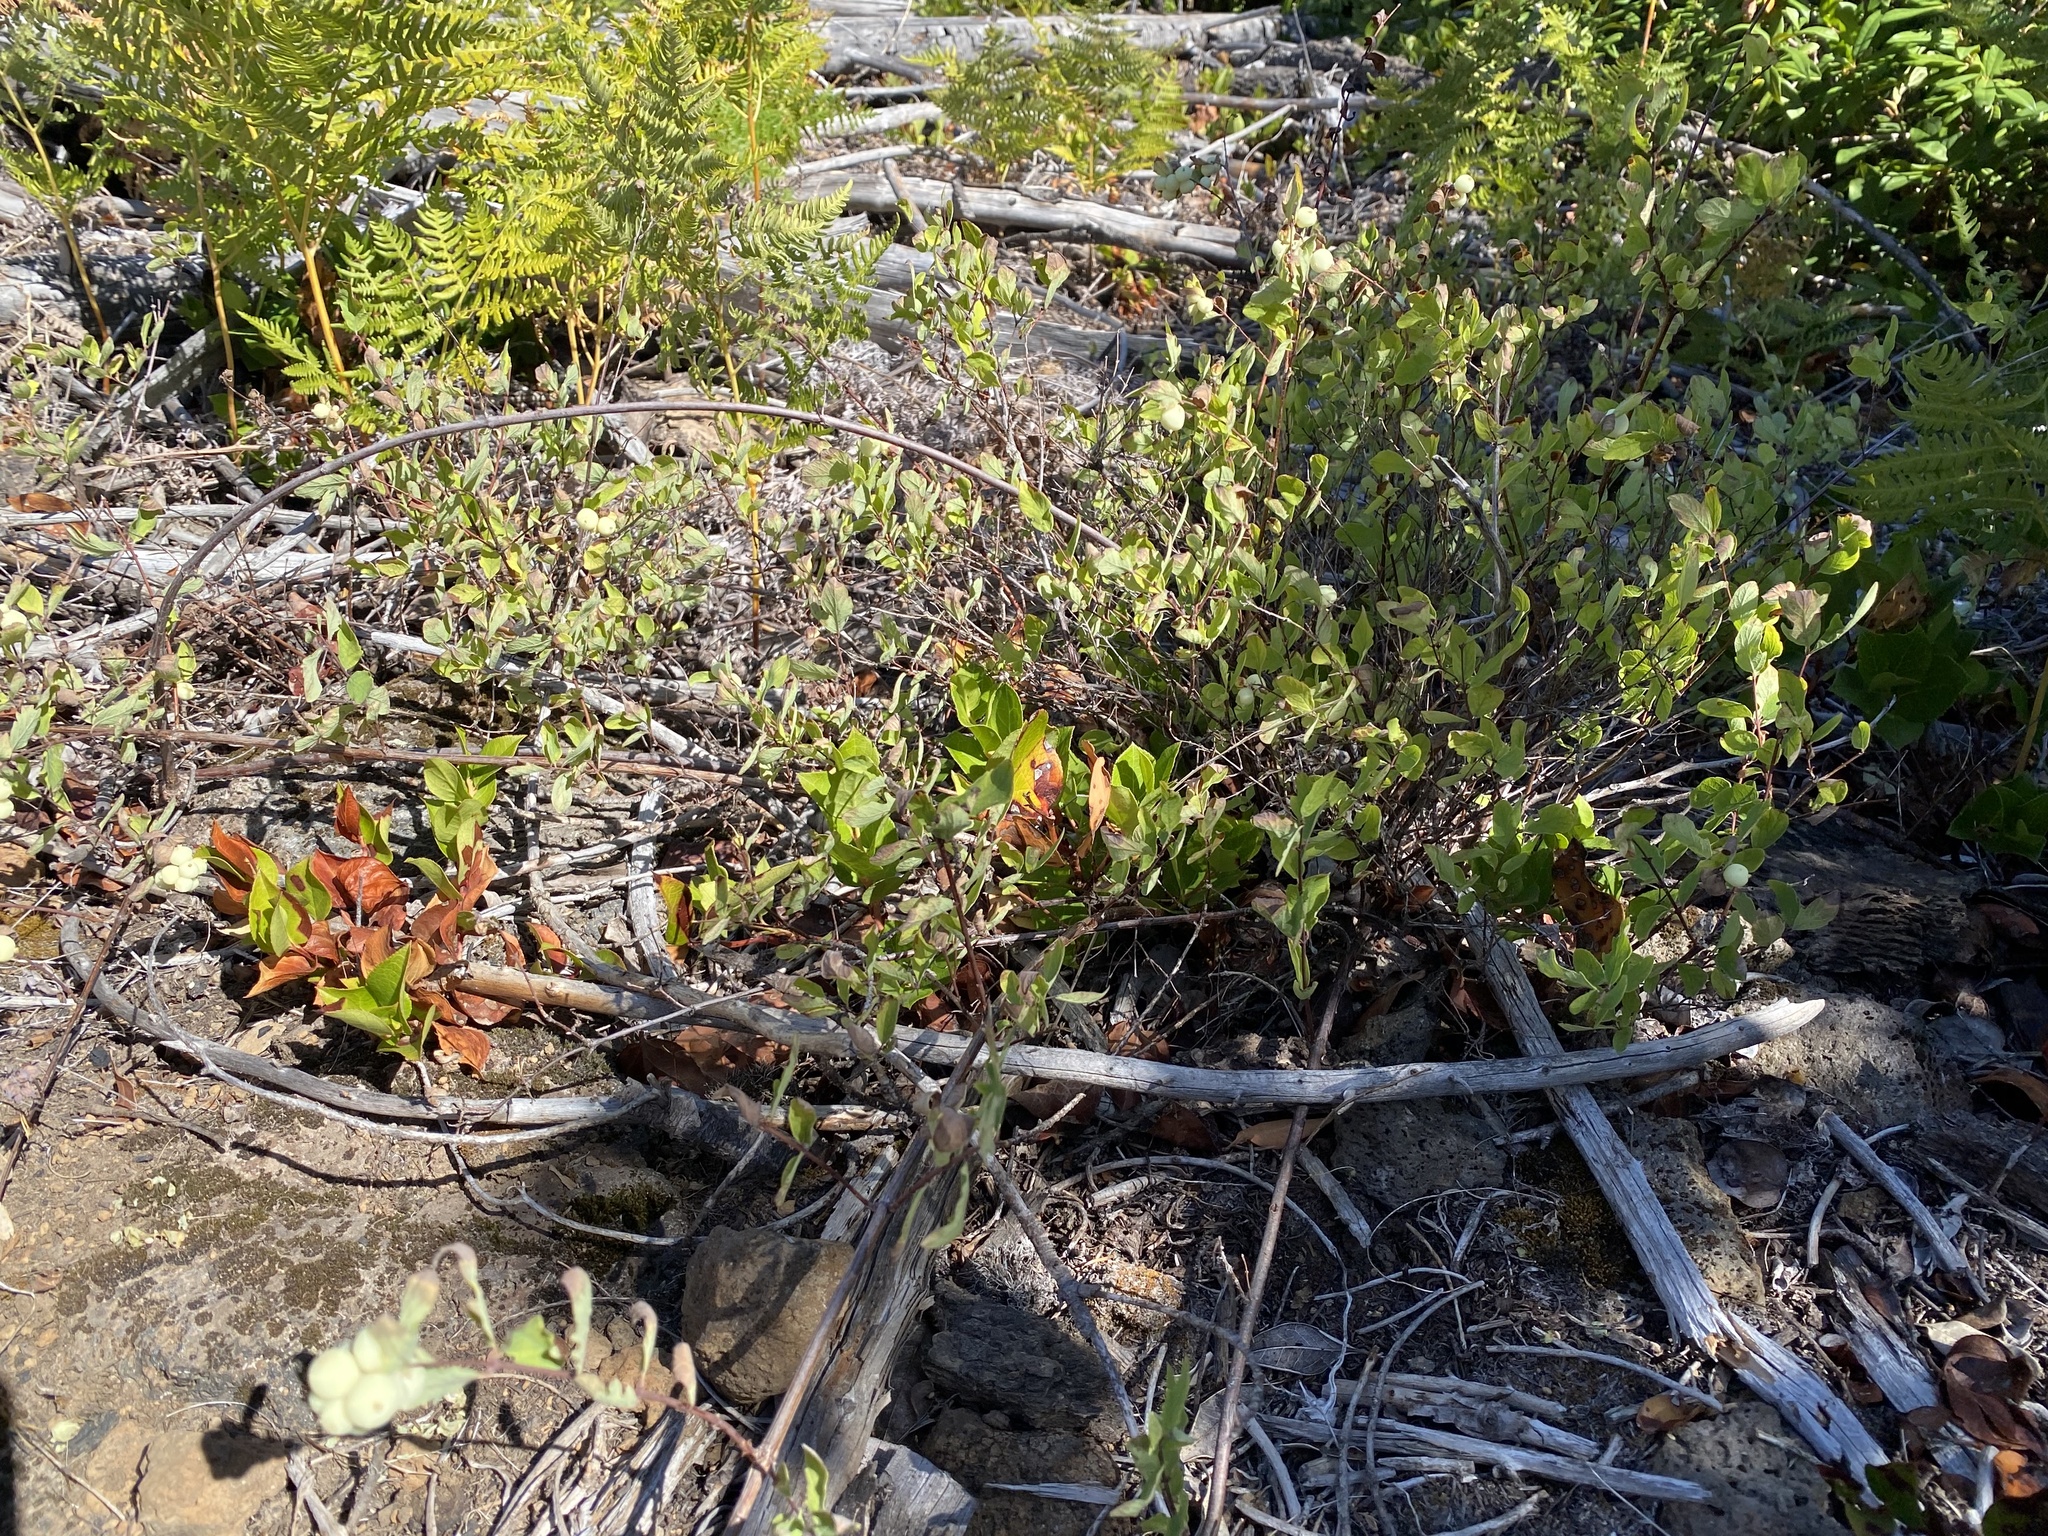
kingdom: Plantae
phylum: Tracheophyta
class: Magnoliopsida
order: Dipsacales
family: Caprifoliaceae
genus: Symphoricarpos
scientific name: Symphoricarpos mollis
